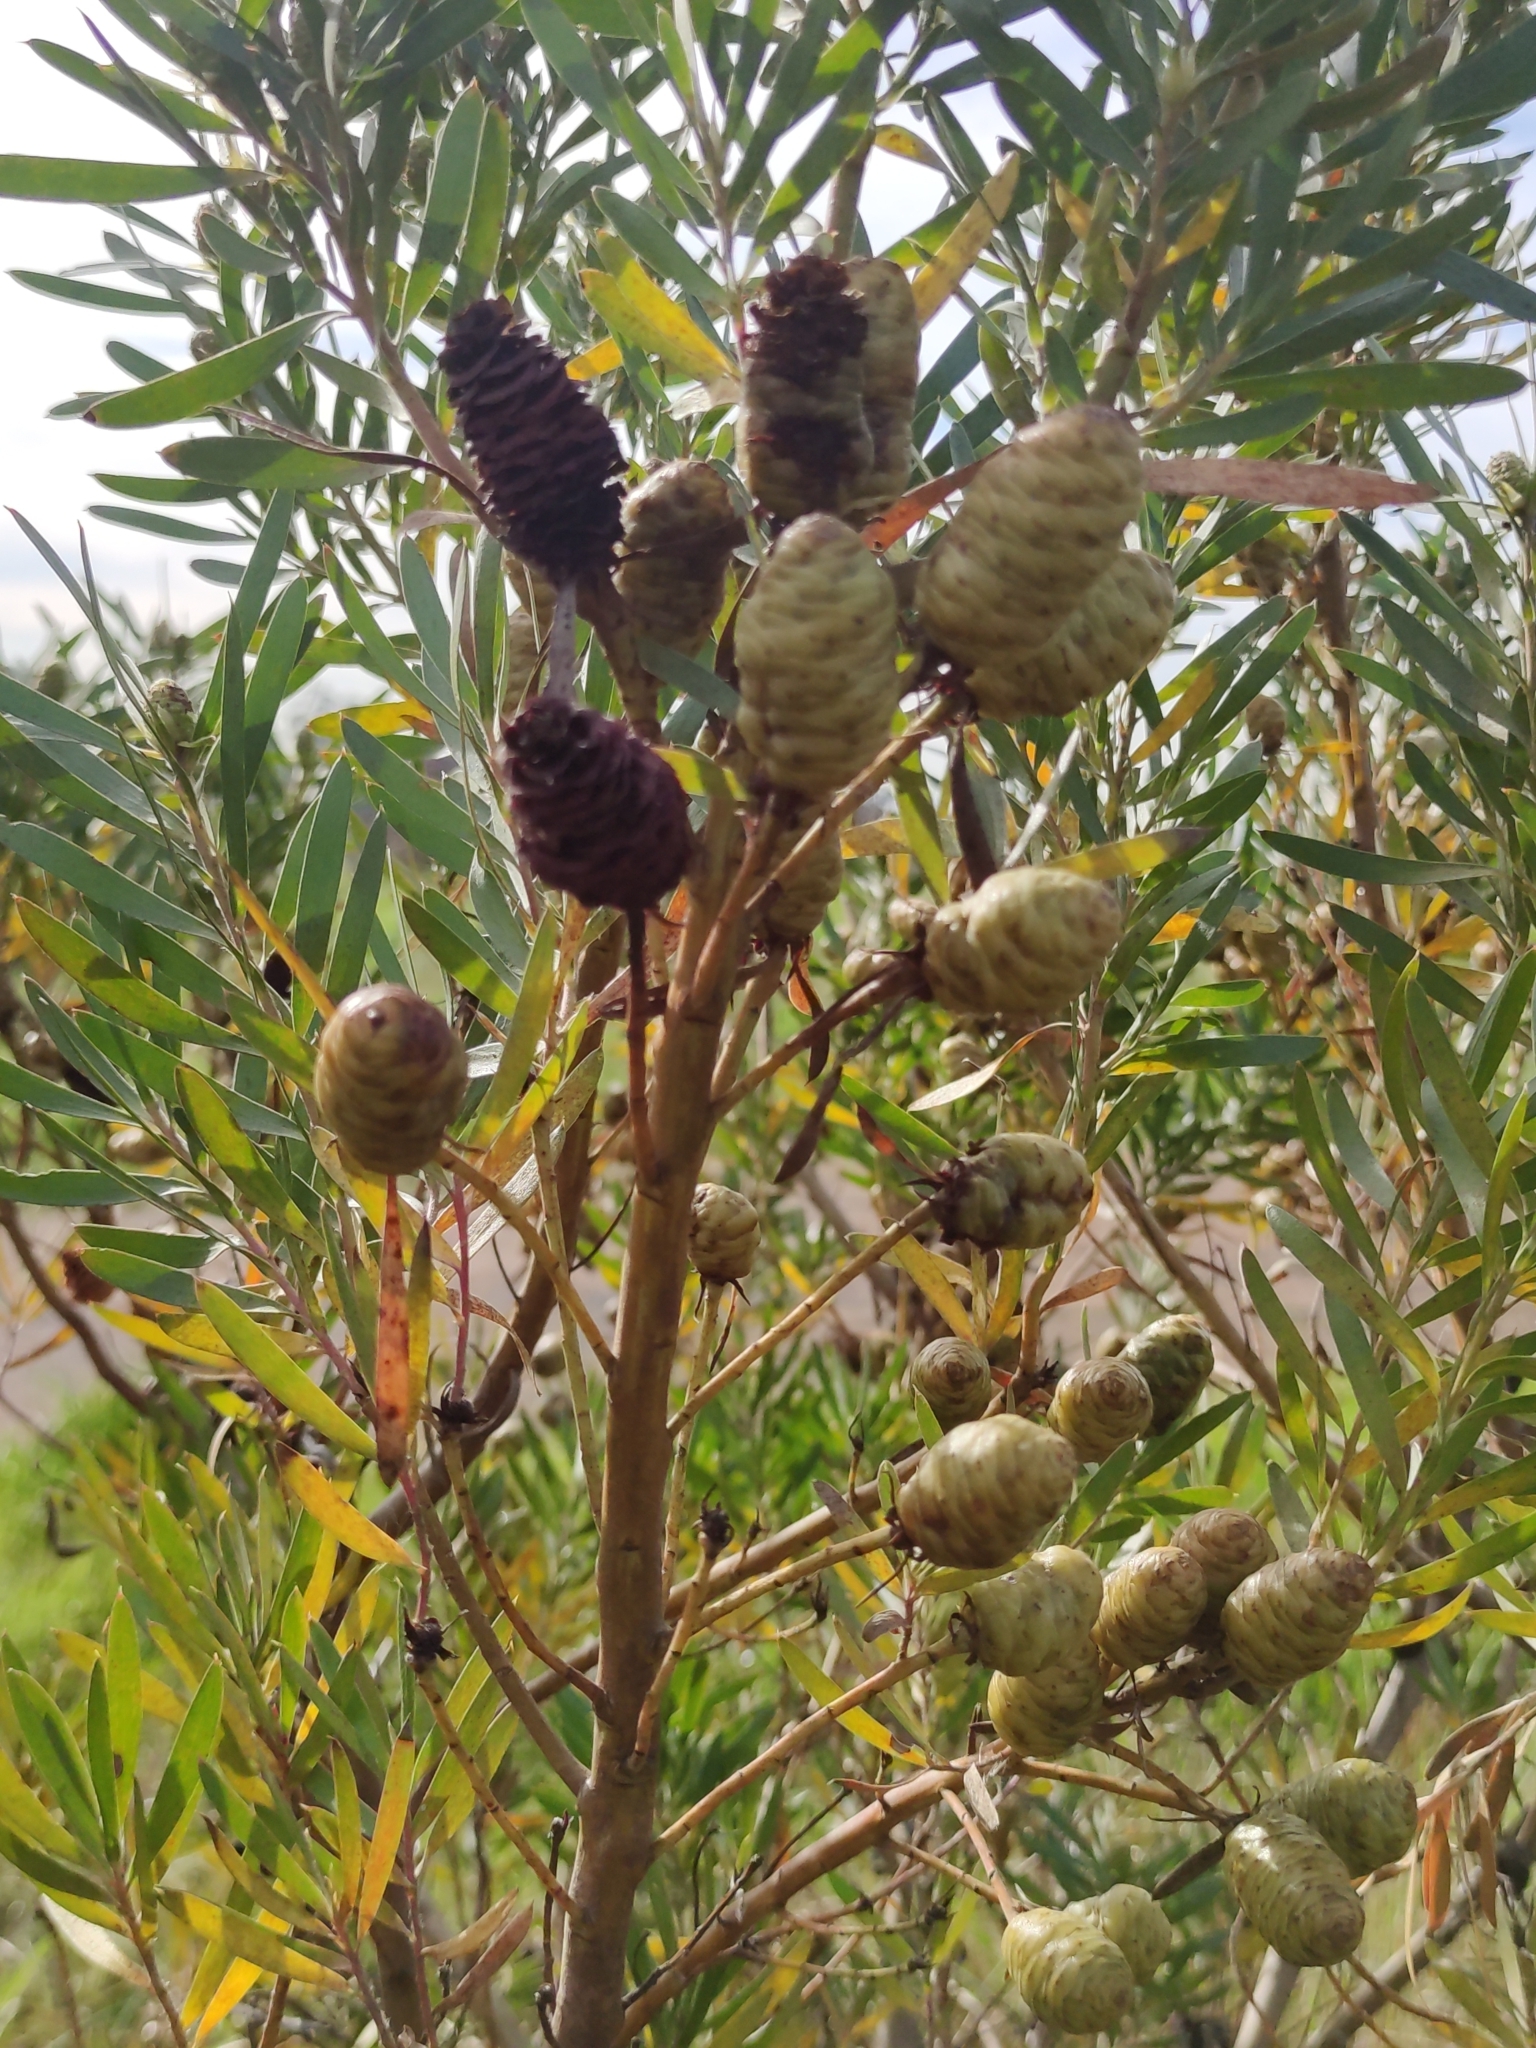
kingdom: Plantae
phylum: Tracheophyta
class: Magnoliopsida
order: Proteales
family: Proteaceae
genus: Leucadendron
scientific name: Leucadendron macowanii
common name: Acacia-leaf conebush
